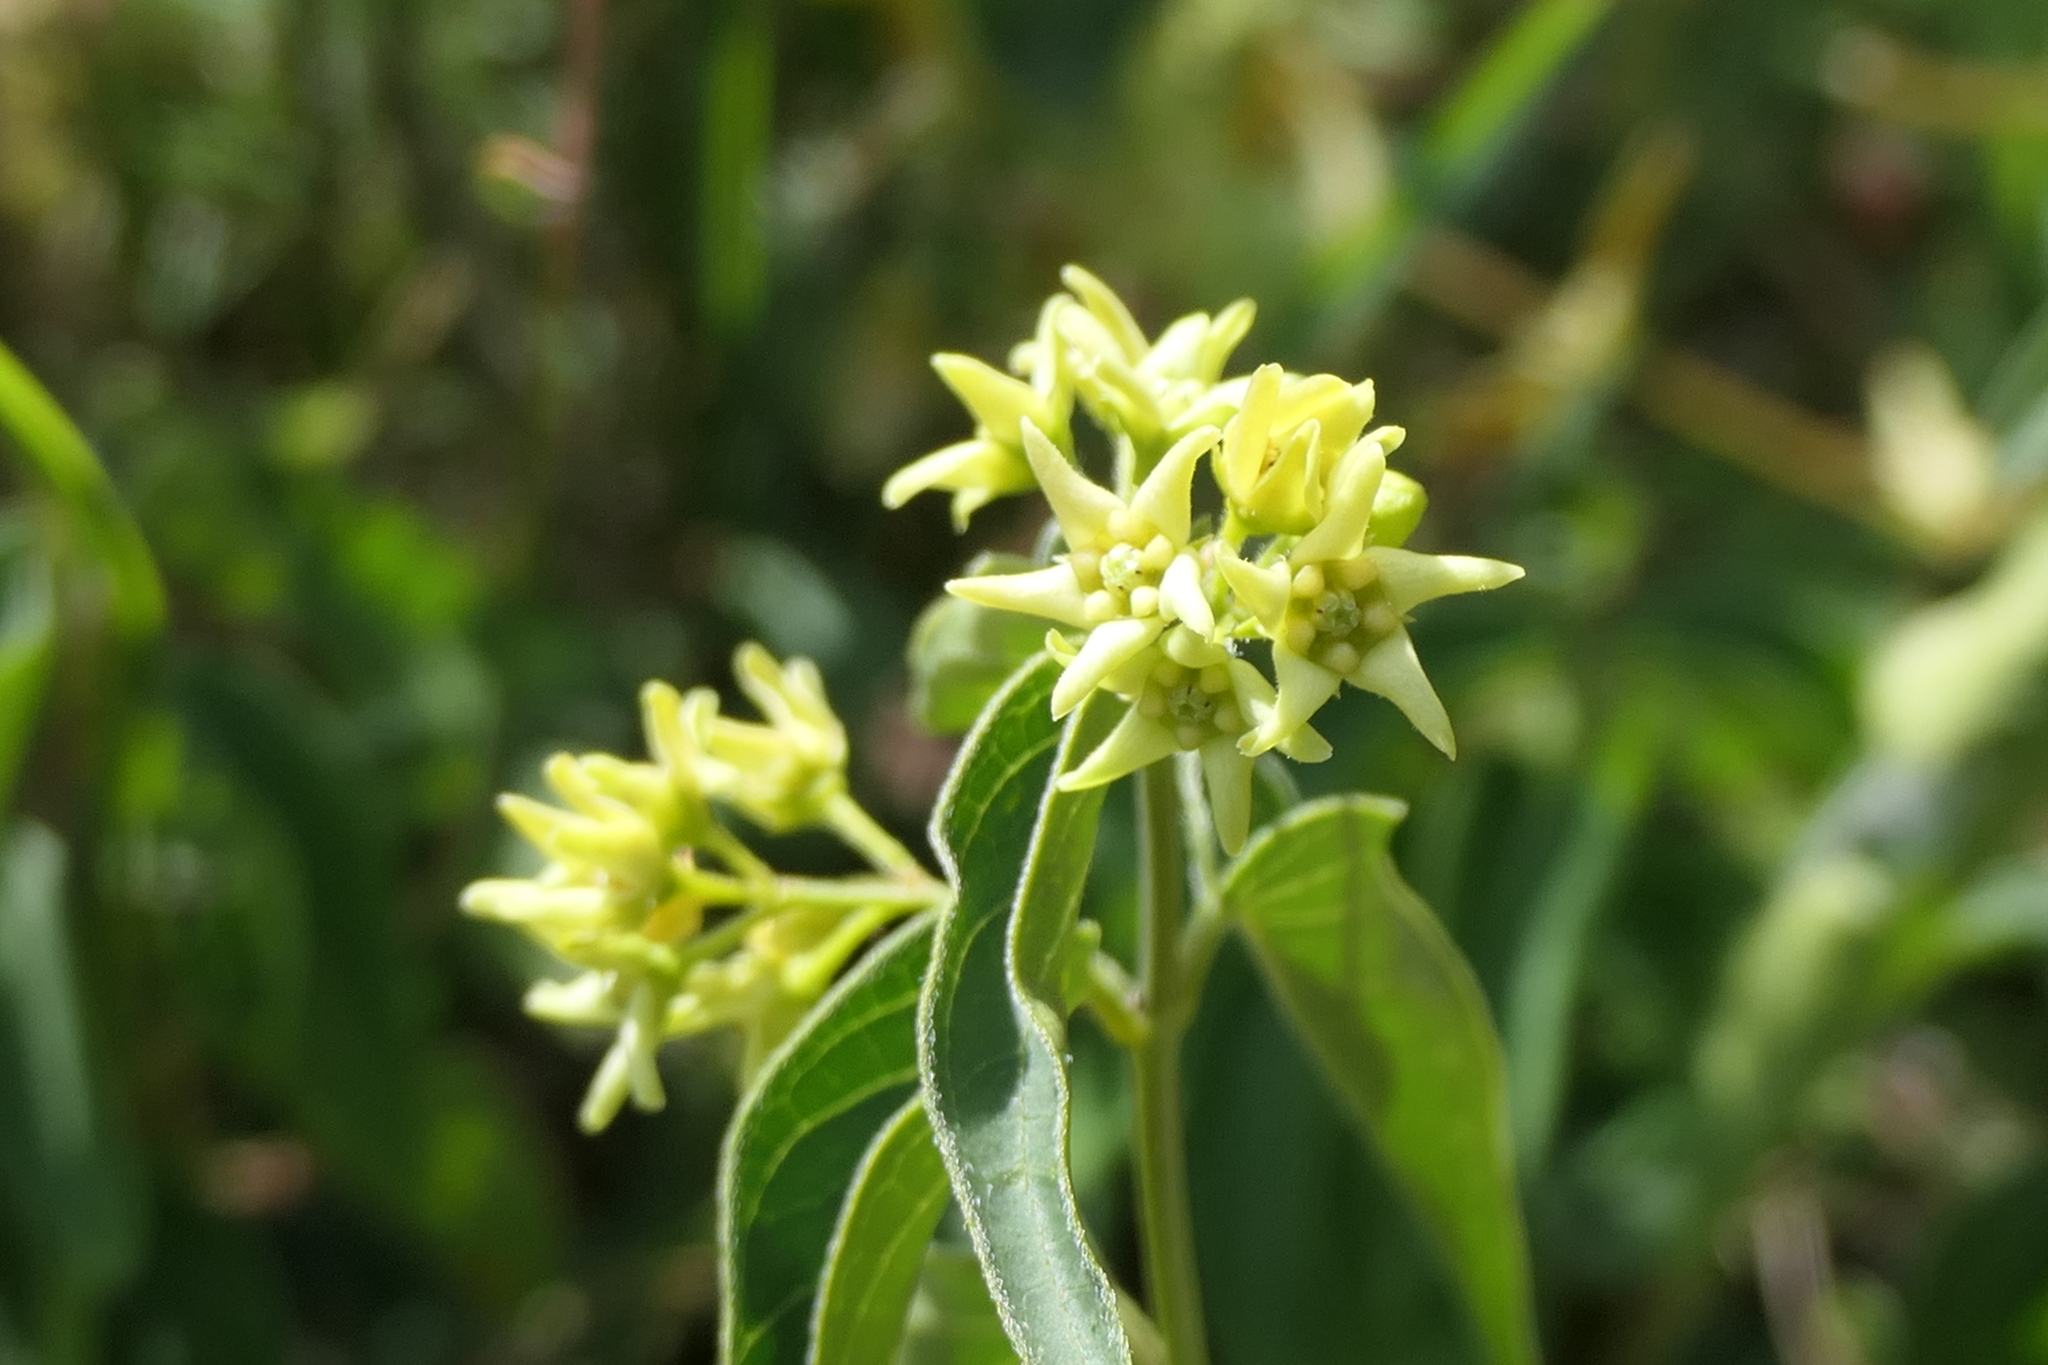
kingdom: Plantae
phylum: Tracheophyta
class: Magnoliopsida
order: Gentianales
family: Apocynaceae
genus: Vincetoxicum
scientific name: Vincetoxicum hirundinaria
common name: White swallowwort
